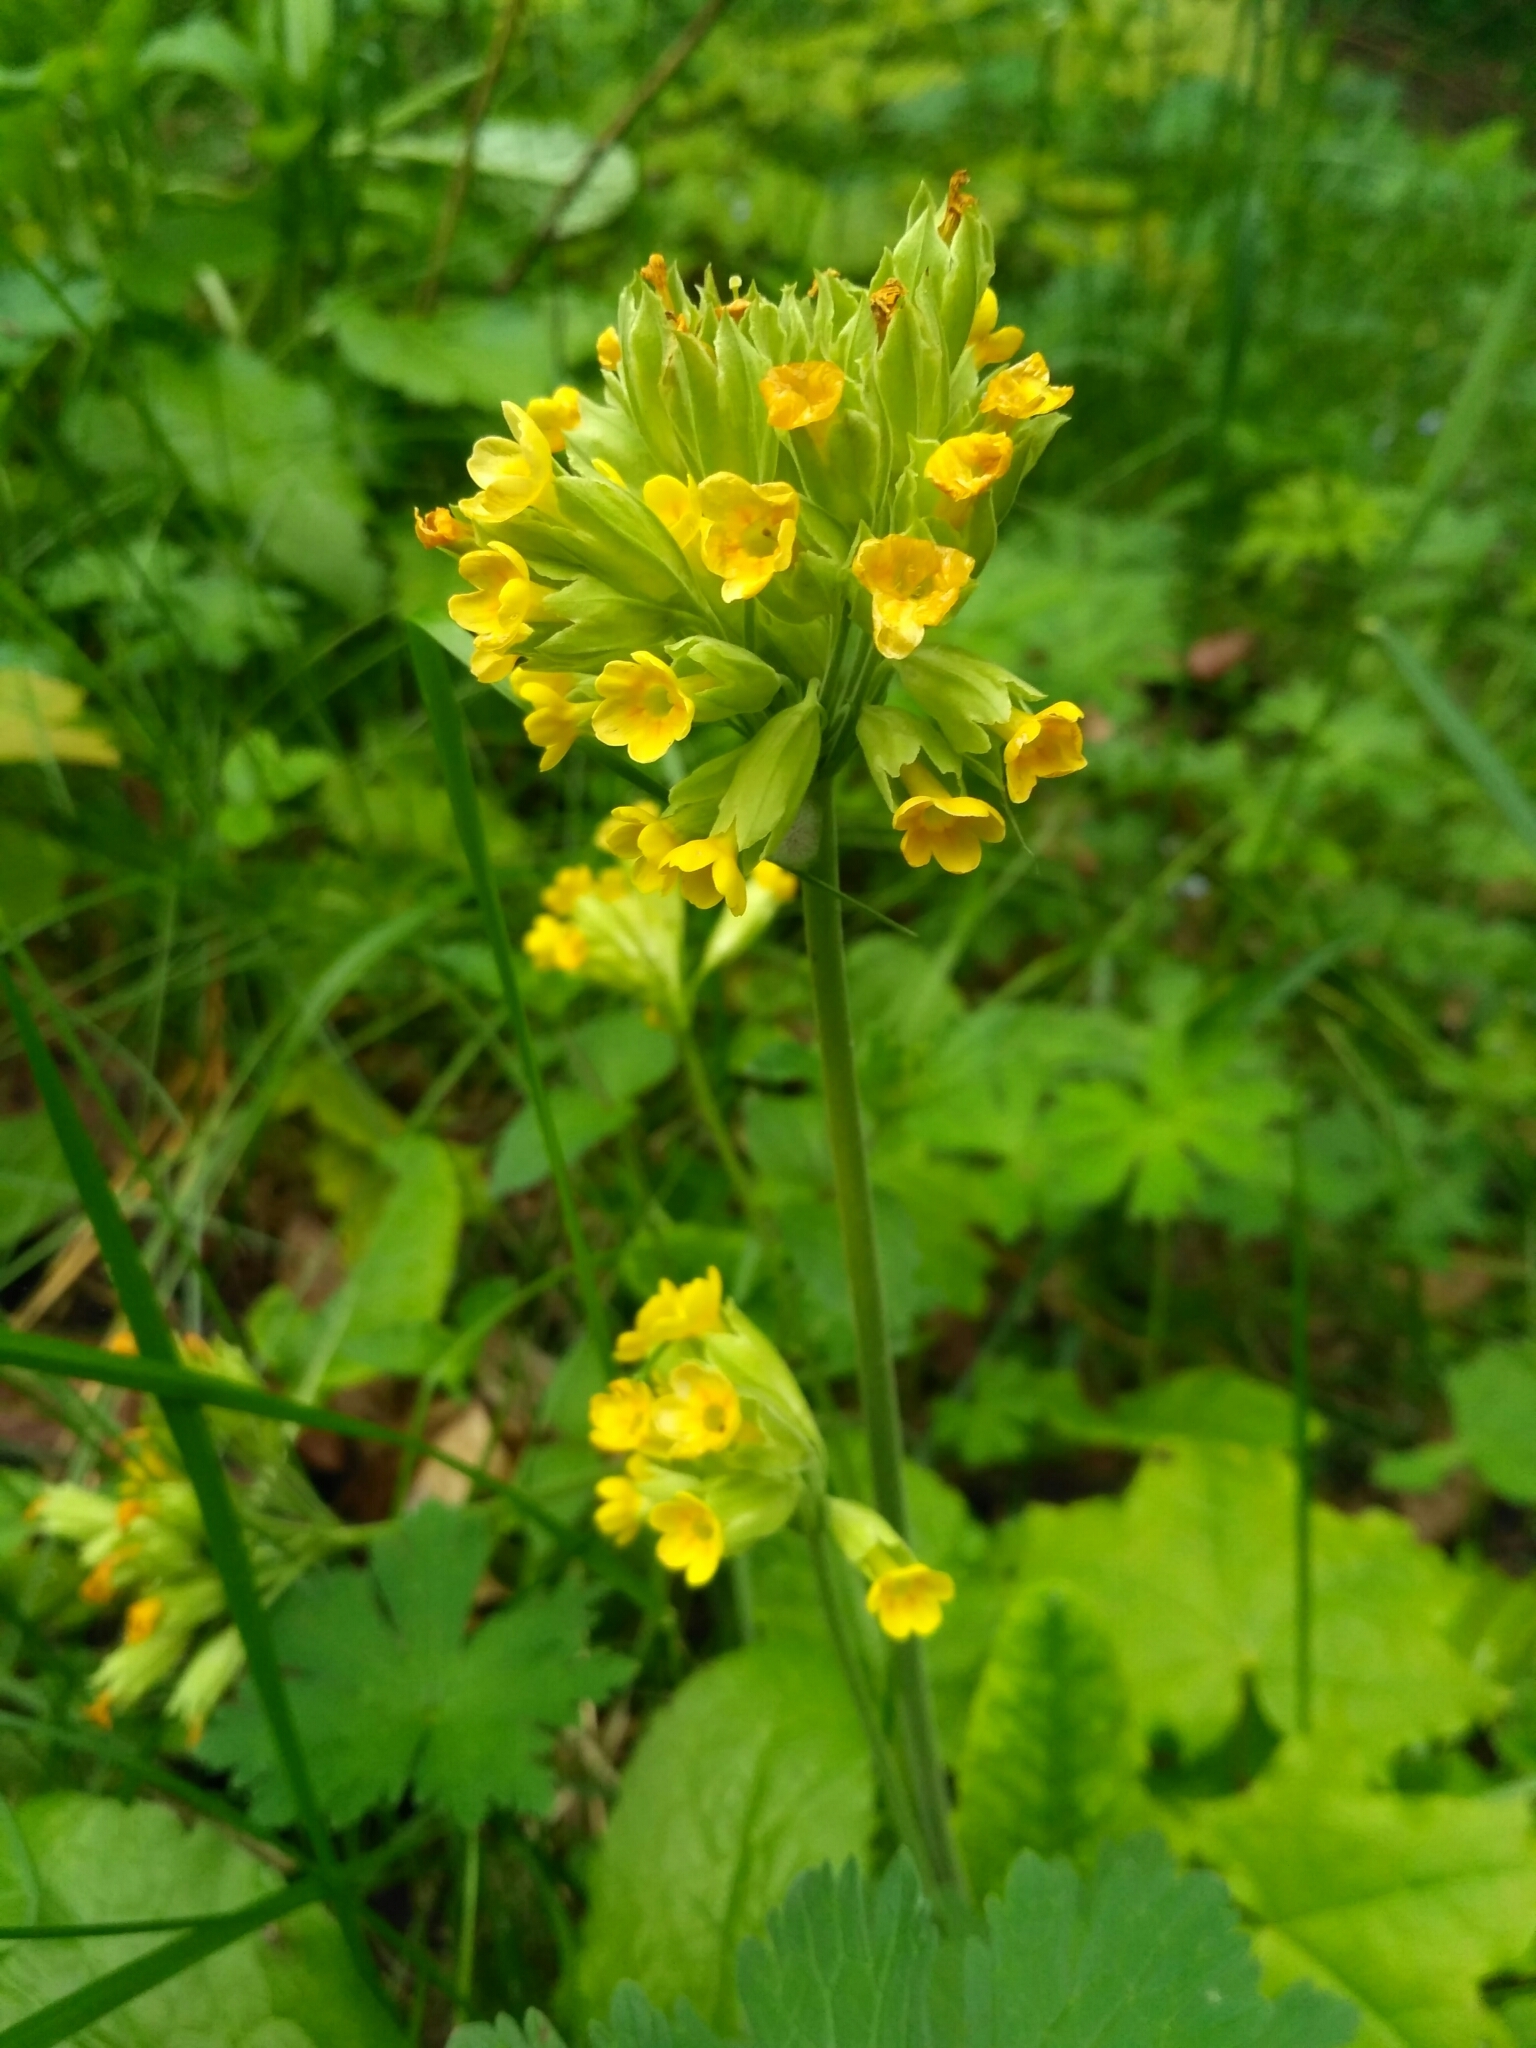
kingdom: Plantae
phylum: Tracheophyta
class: Magnoliopsida
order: Ericales
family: Primulaceae
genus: Primula
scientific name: Primula veris
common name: Cowslip
